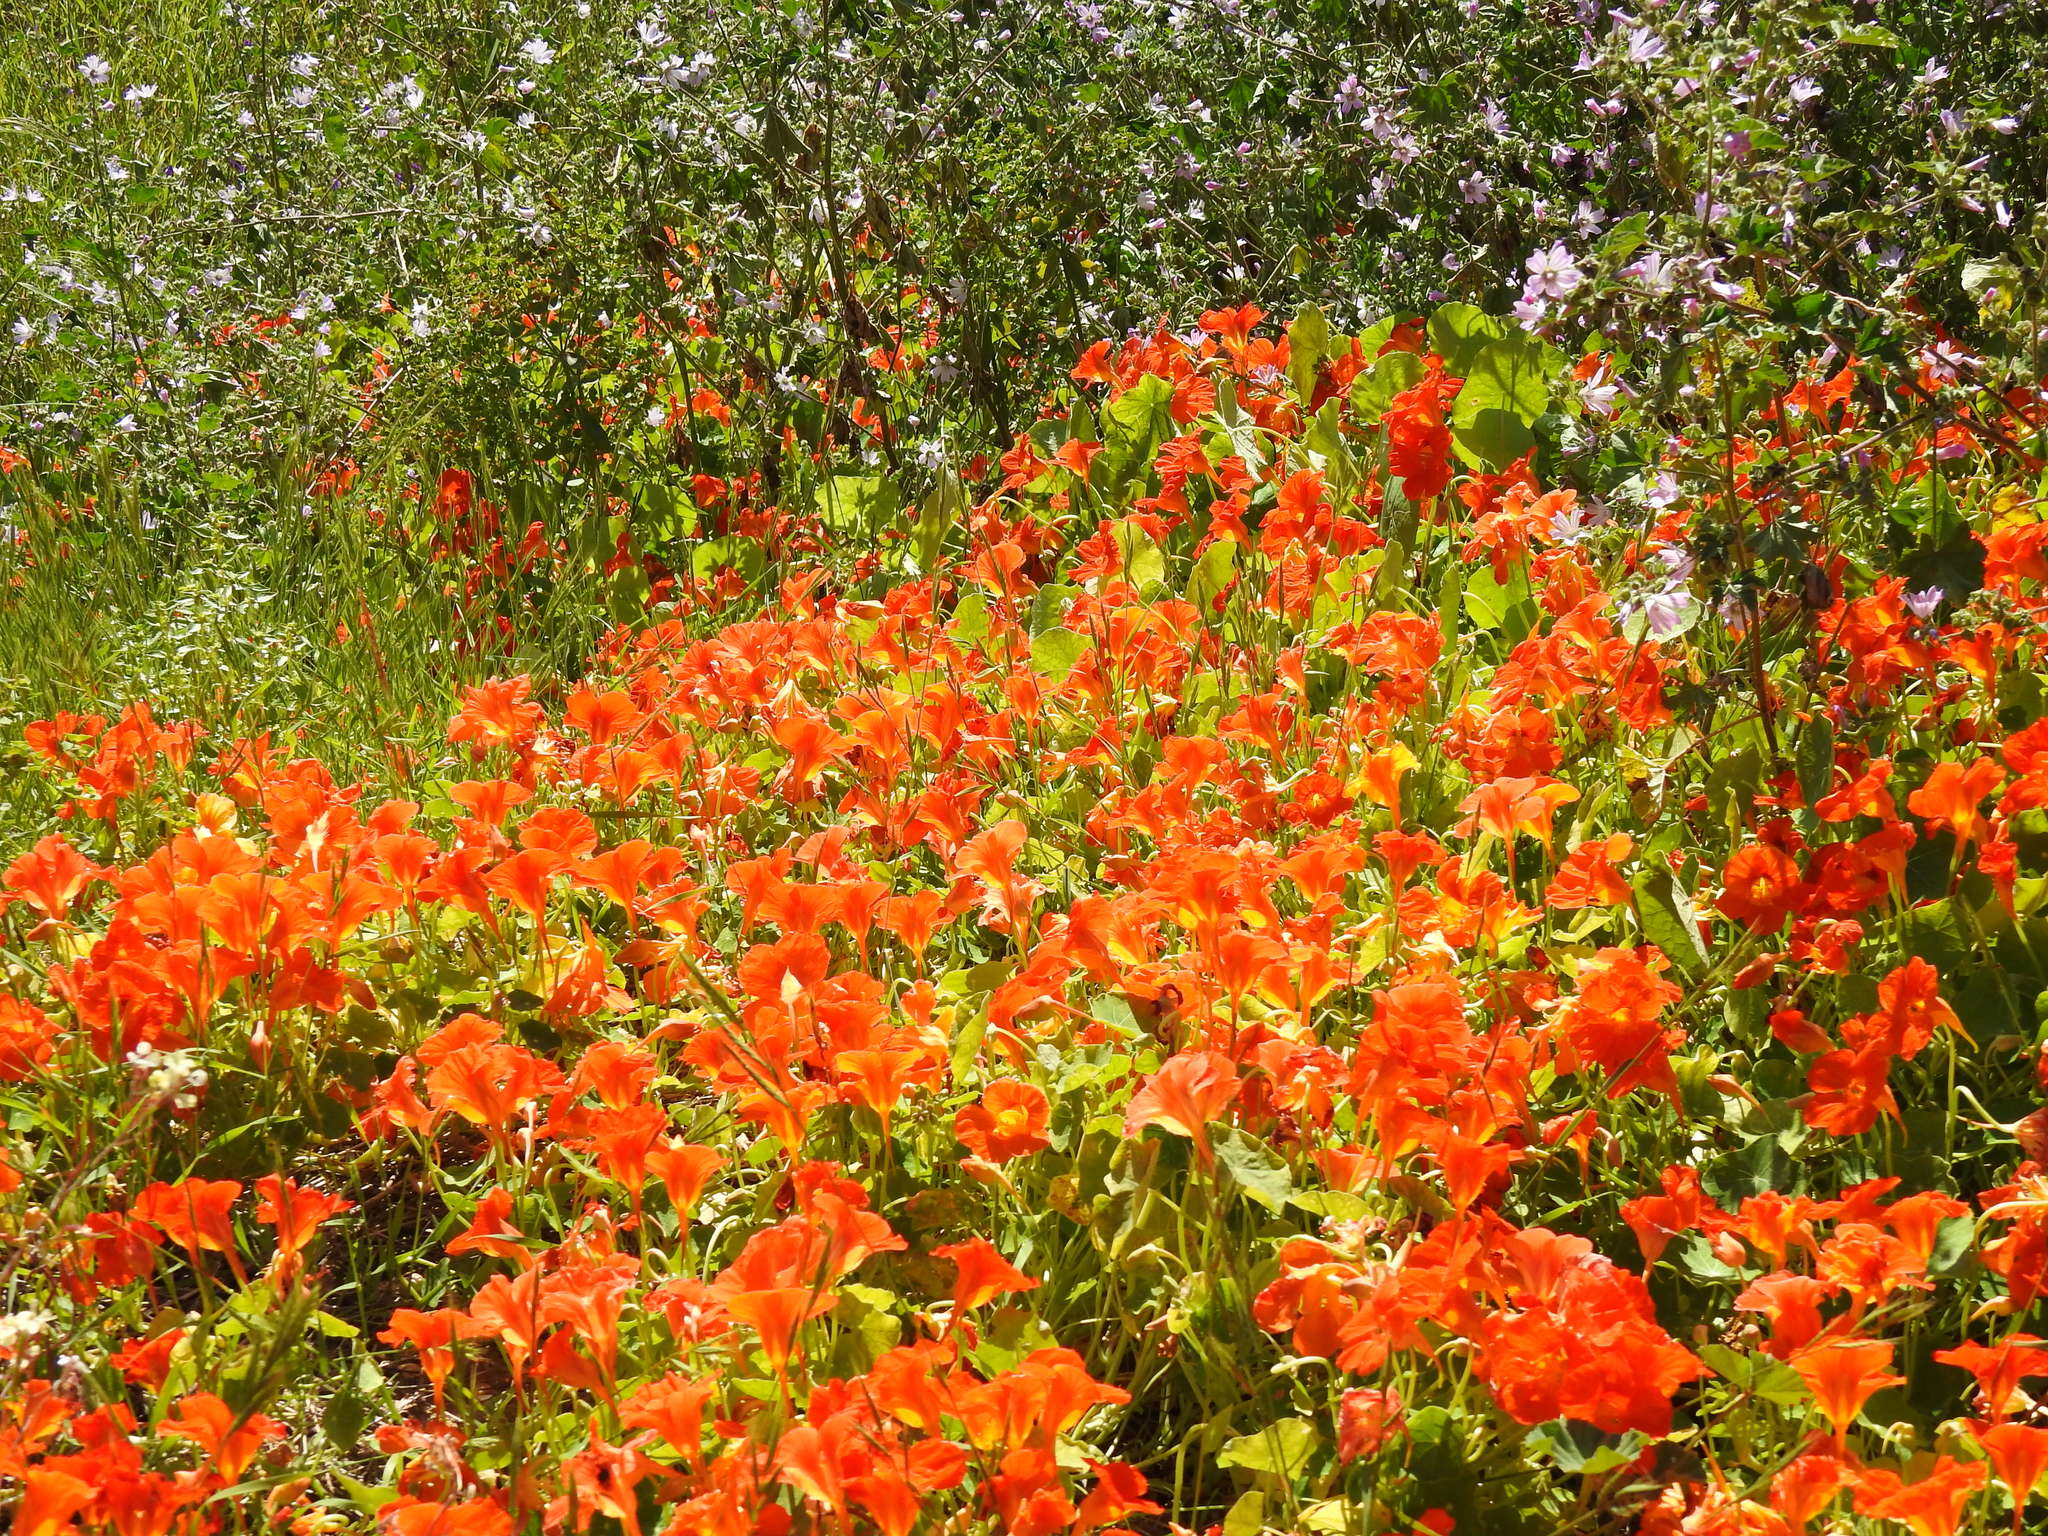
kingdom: Plantae
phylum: Tracheophyta
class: Magnoliopsida
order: Brassicales
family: Tropaeolaceae
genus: Tropaeolum
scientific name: Tropaeolum majus
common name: Nasturtium
